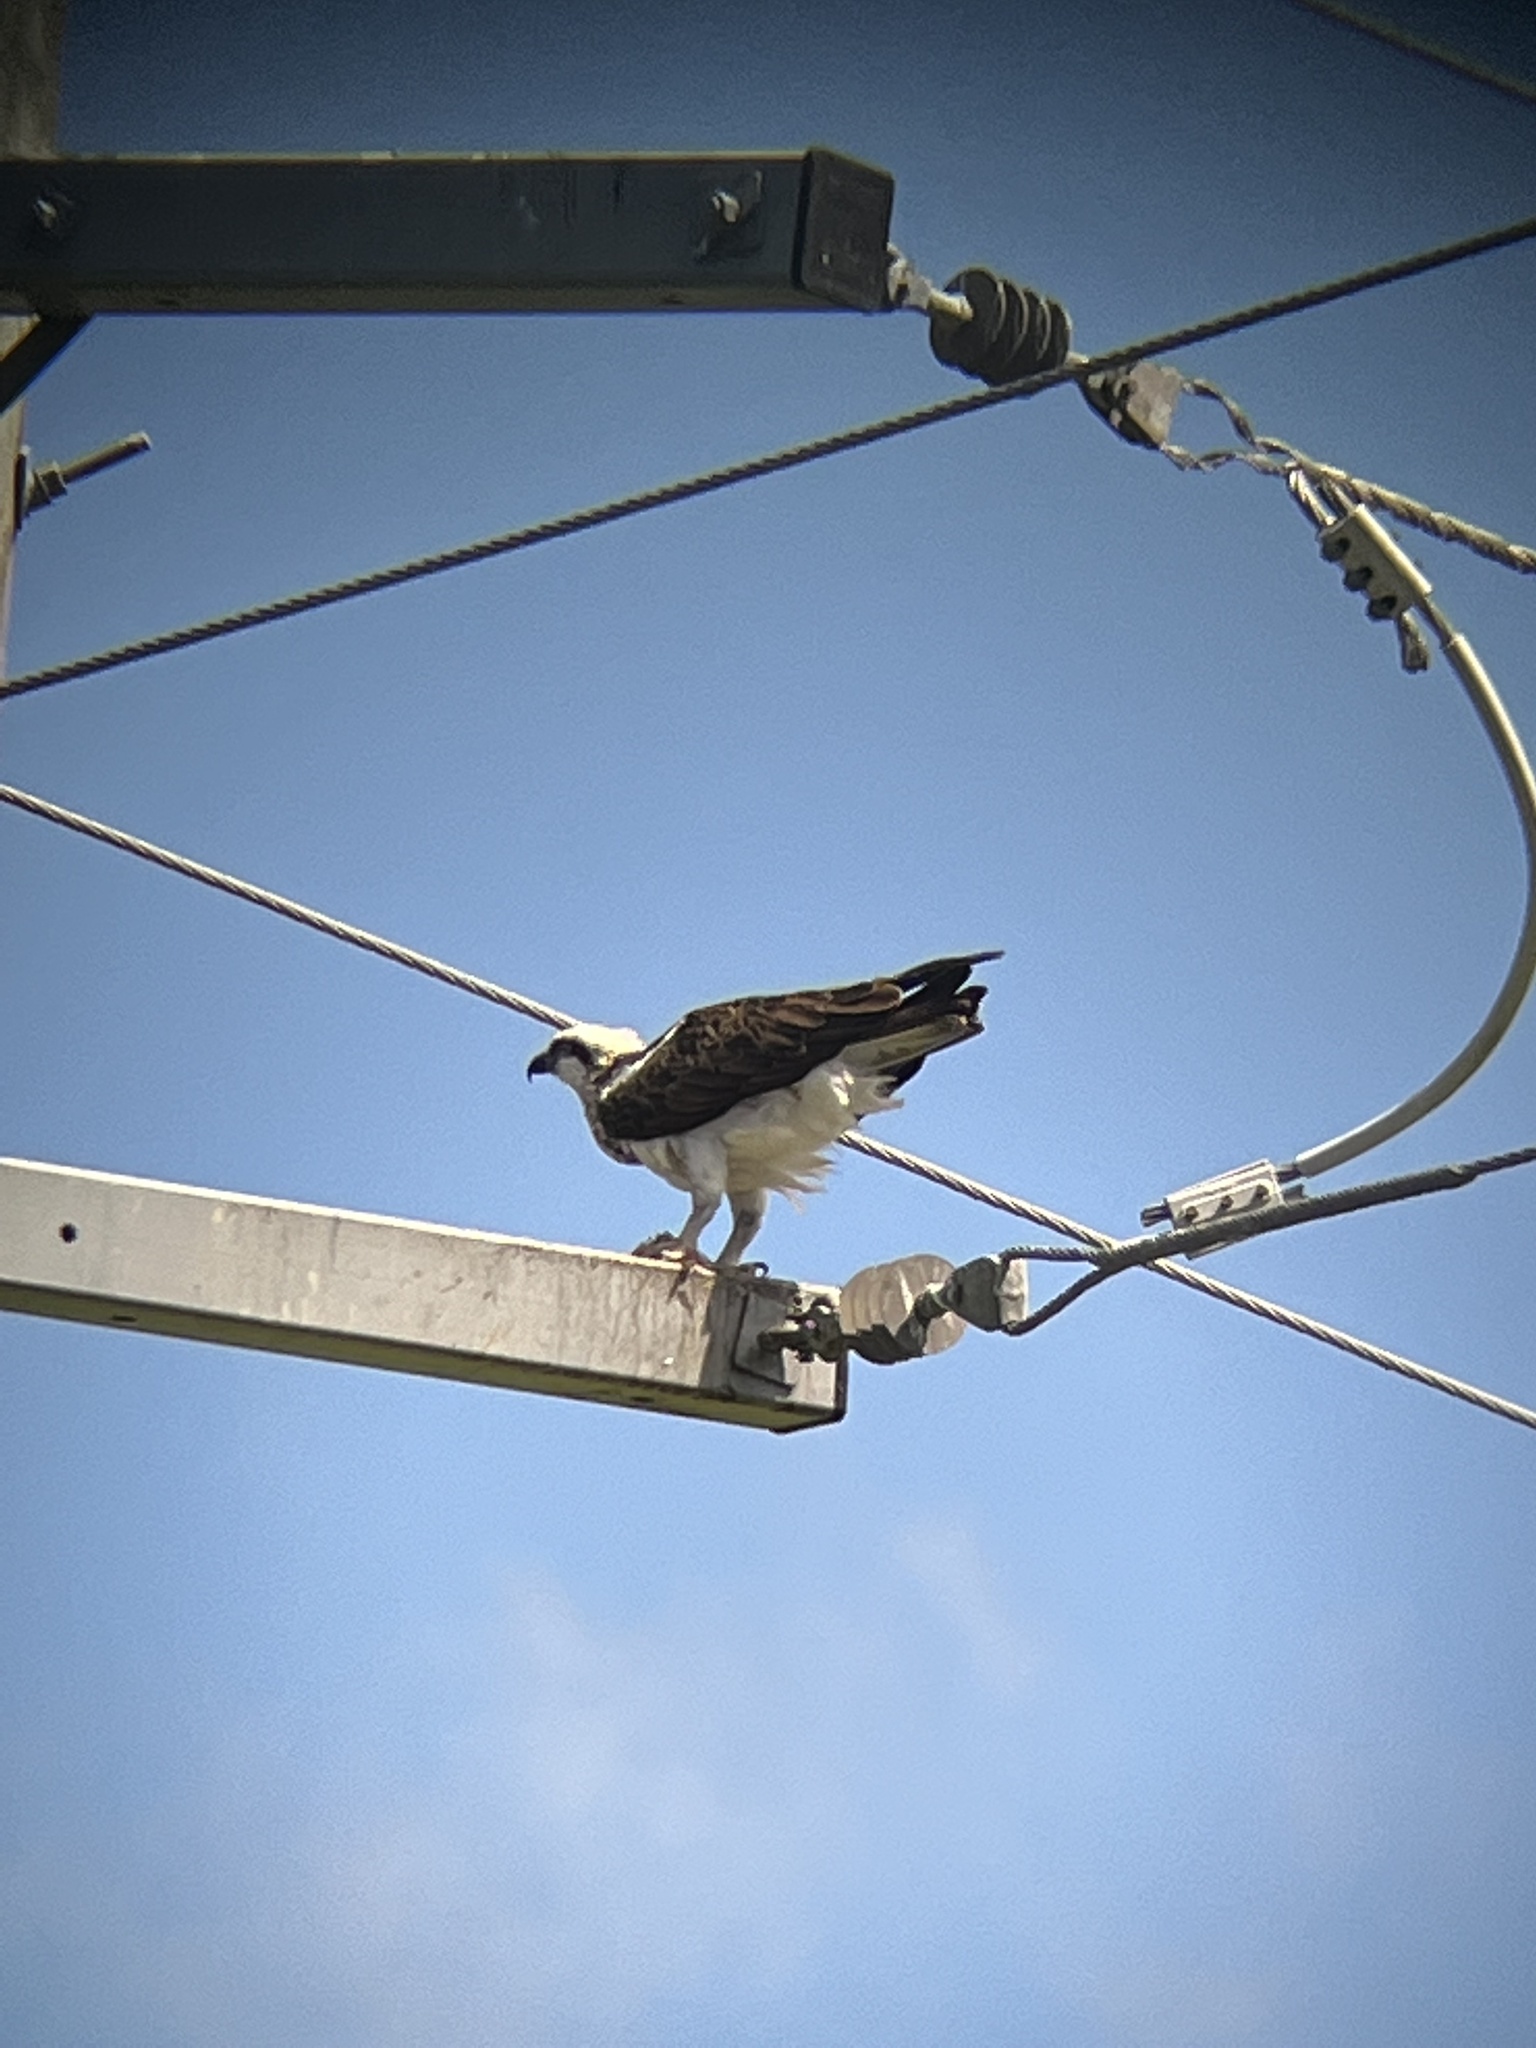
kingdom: Animalia
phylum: Chordata
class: Aves
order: Accipitriformes
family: Pandionidae
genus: Pandion
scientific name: Pandion haliaetus
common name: Osprey
